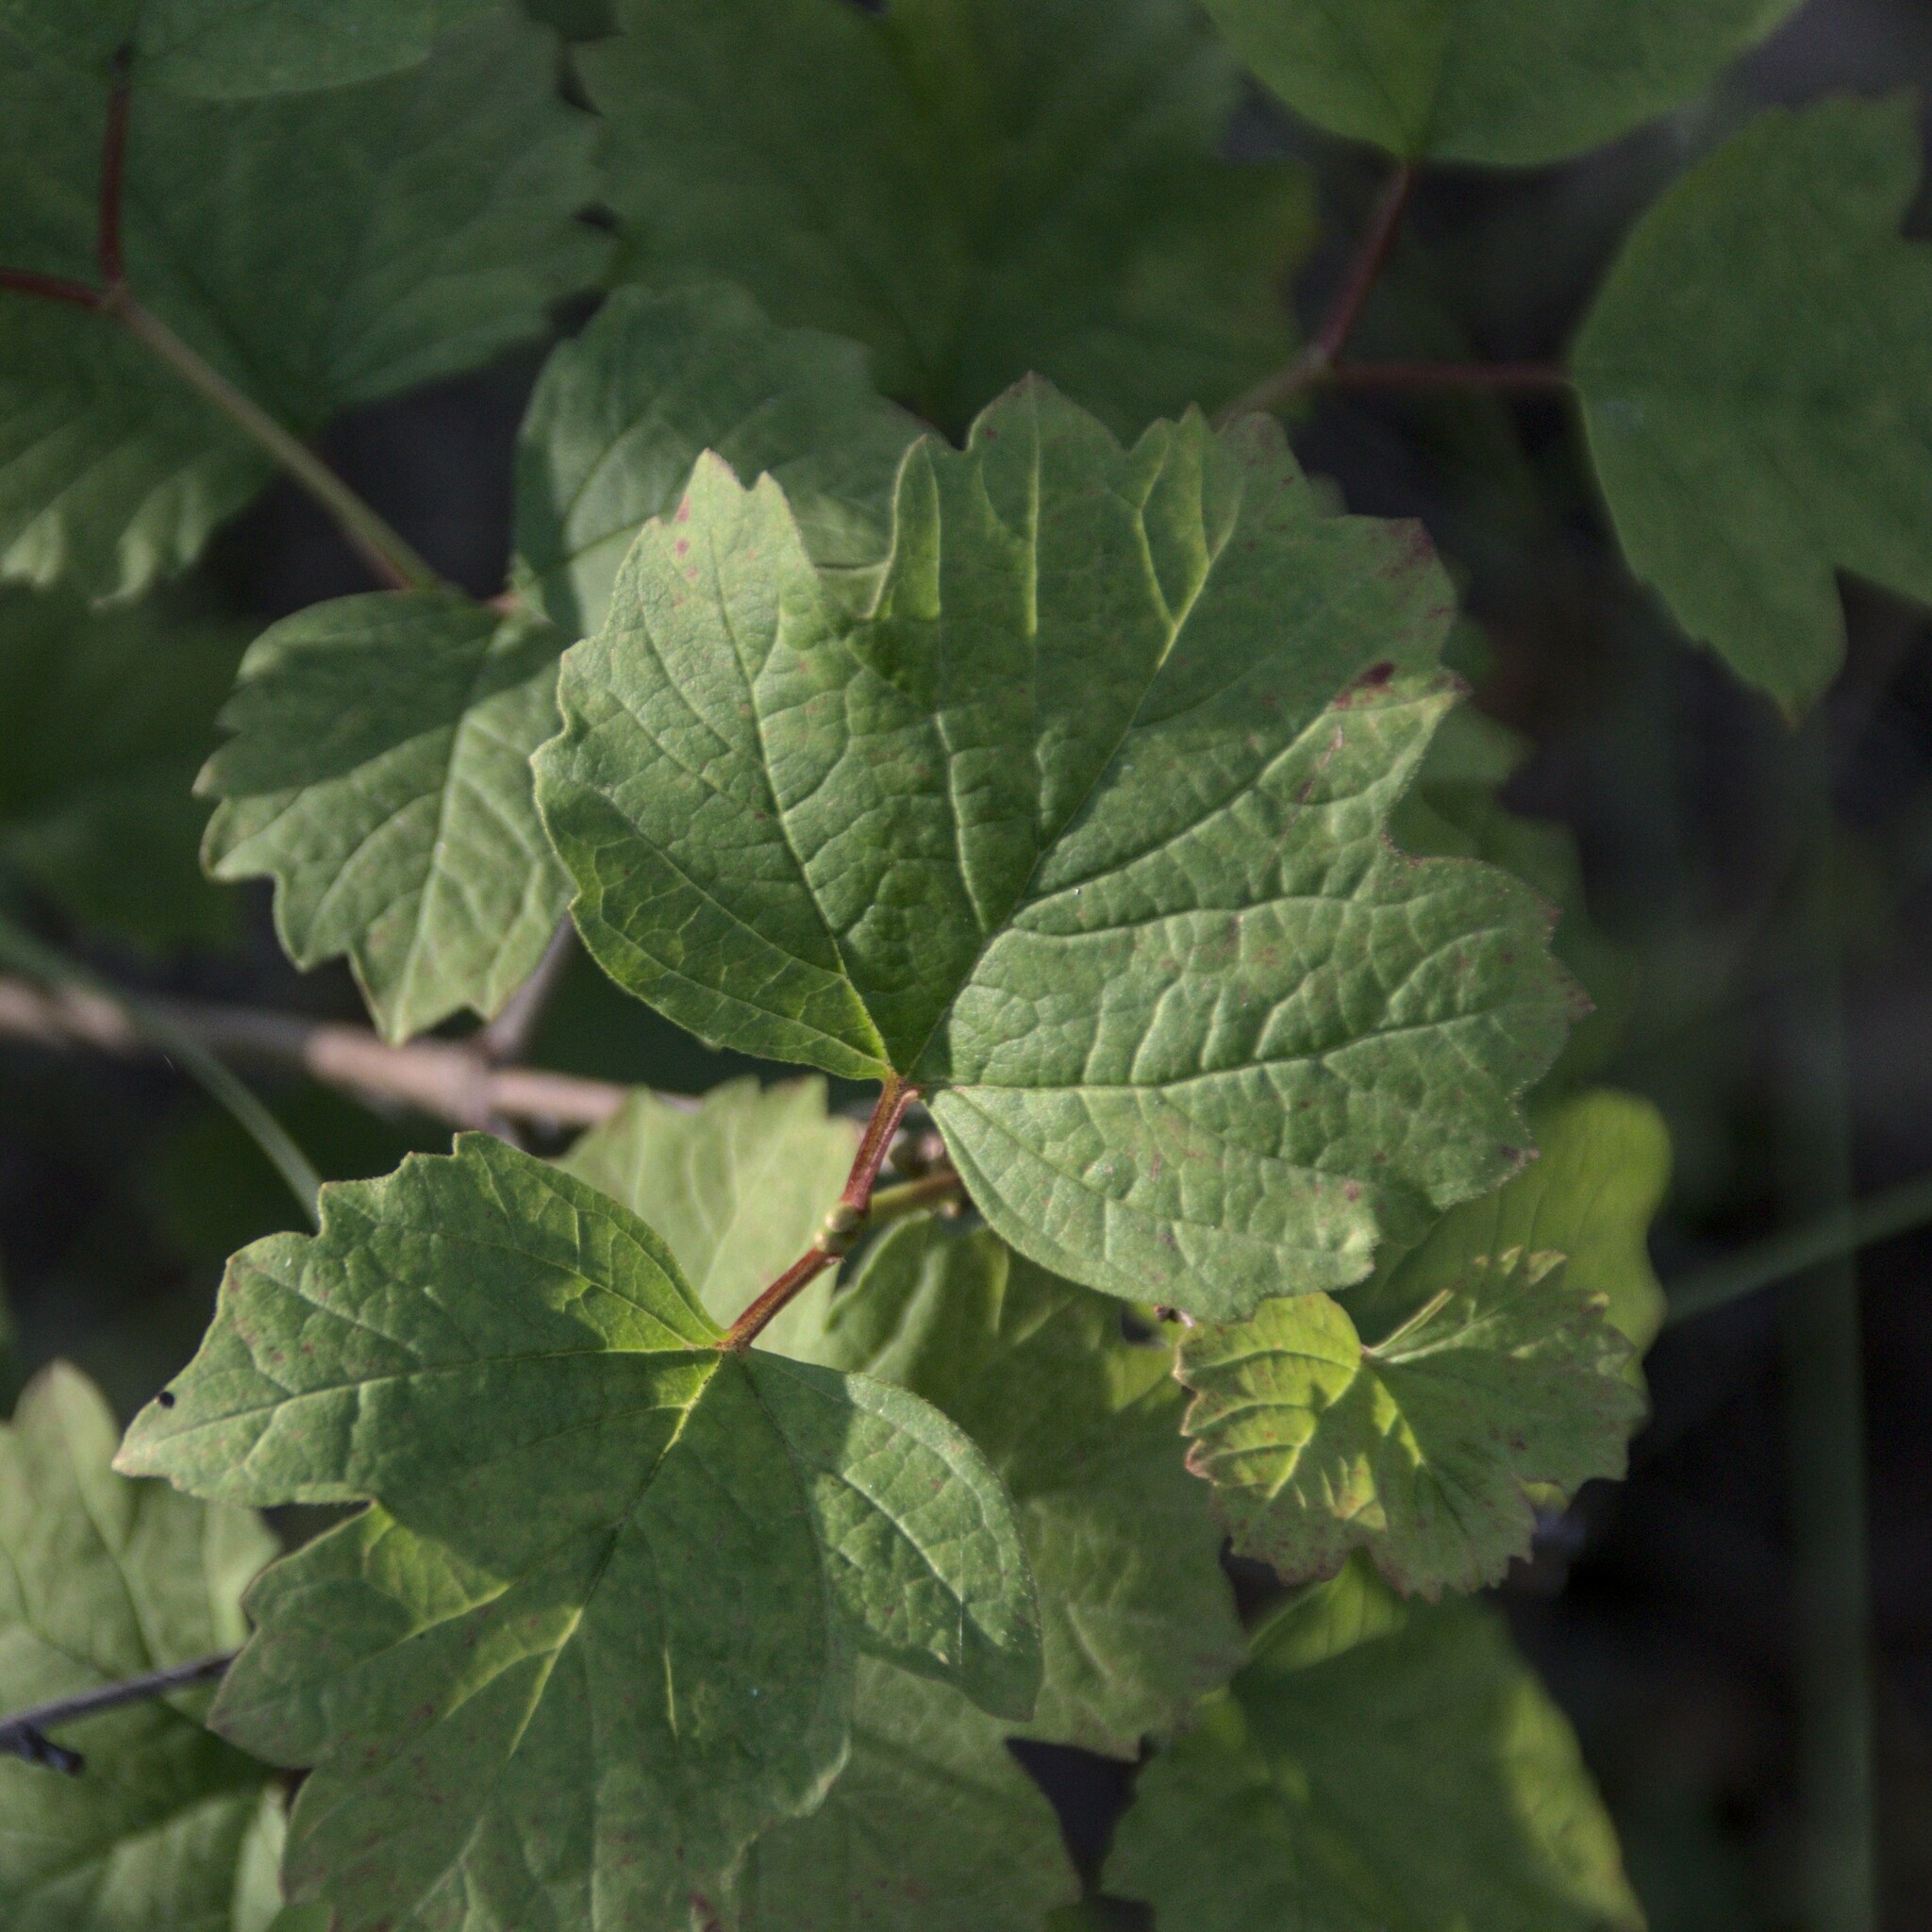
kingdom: Plantae
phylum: Tracheophyta
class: Magnoliopsida
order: Dipsacales
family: Viburnaceae
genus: Viburnum
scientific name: Viburnum opulus
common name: Guelder-rose
